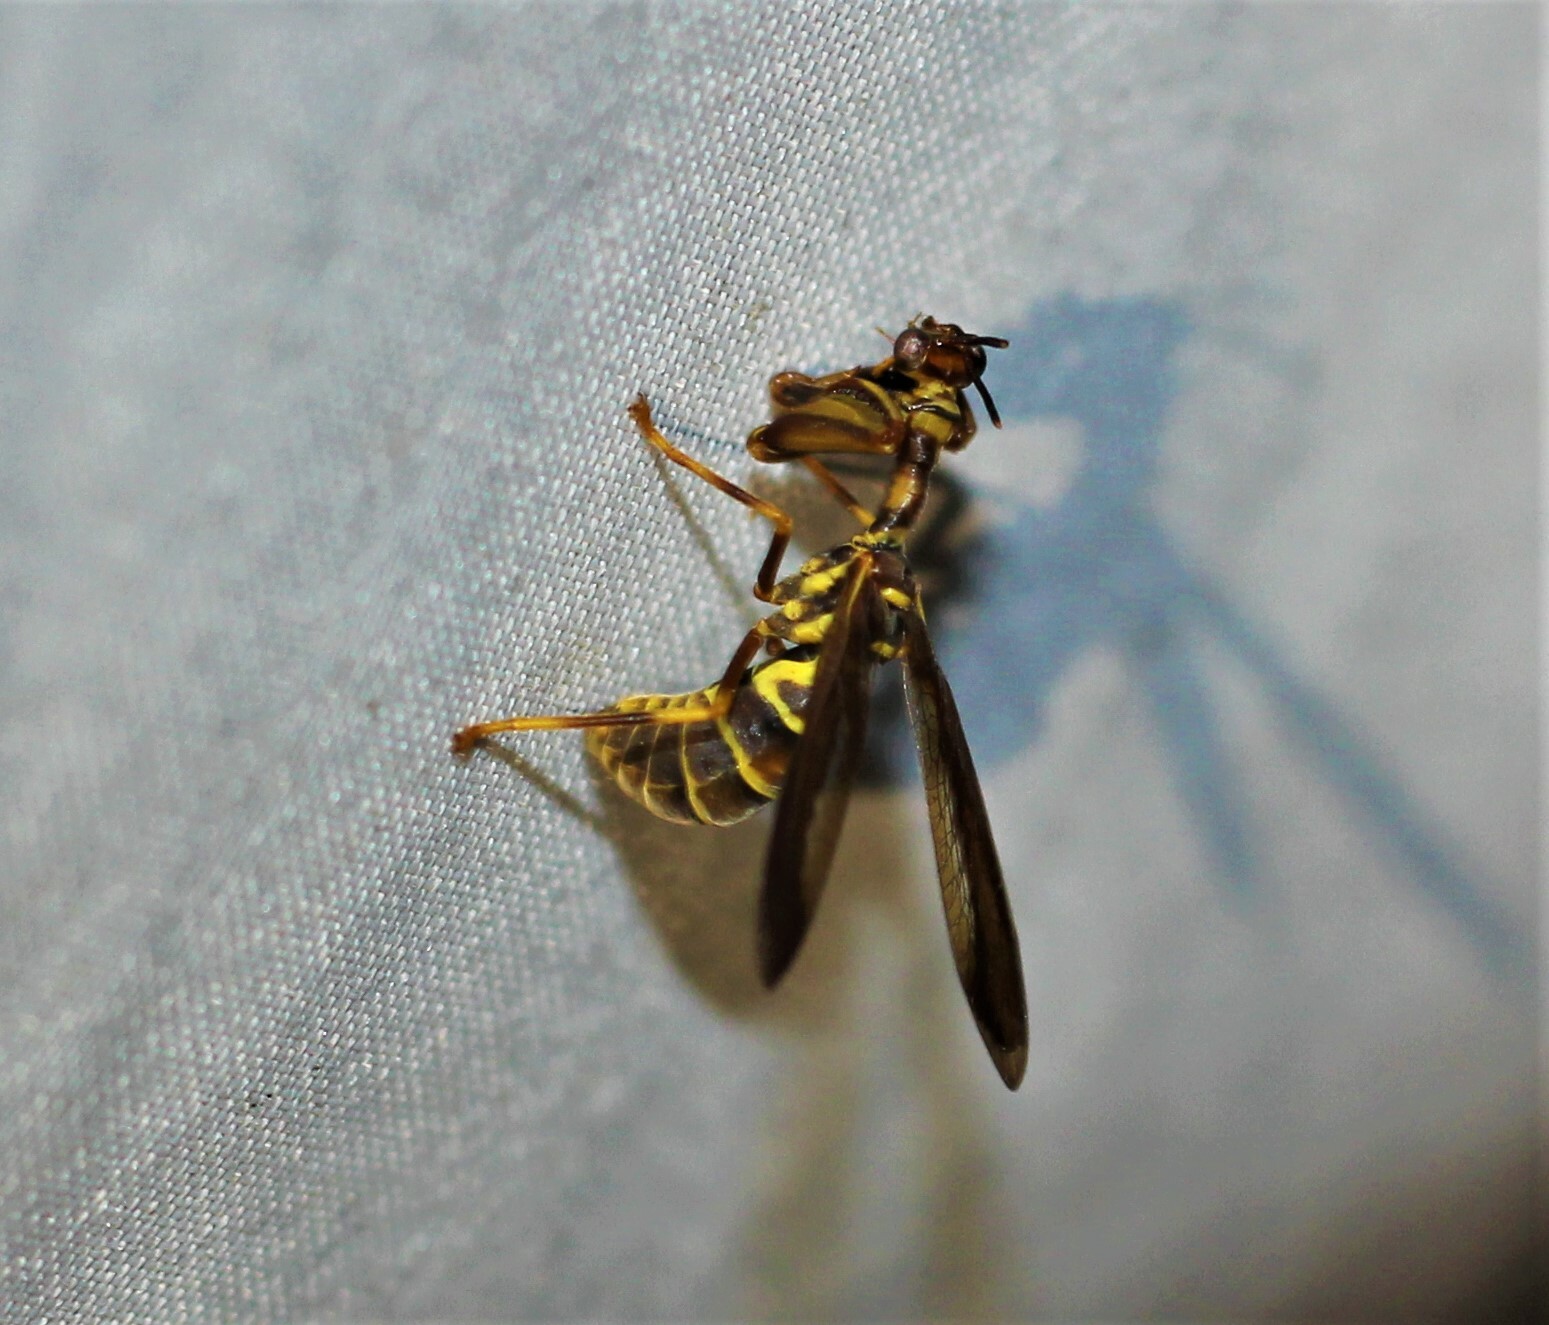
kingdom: Animalia
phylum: Arthropoda
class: Insecta
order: Neuroptera
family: Mantispidae
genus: Climaciella
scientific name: Climaciella brunnea
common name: Brown wasp mantidfly
